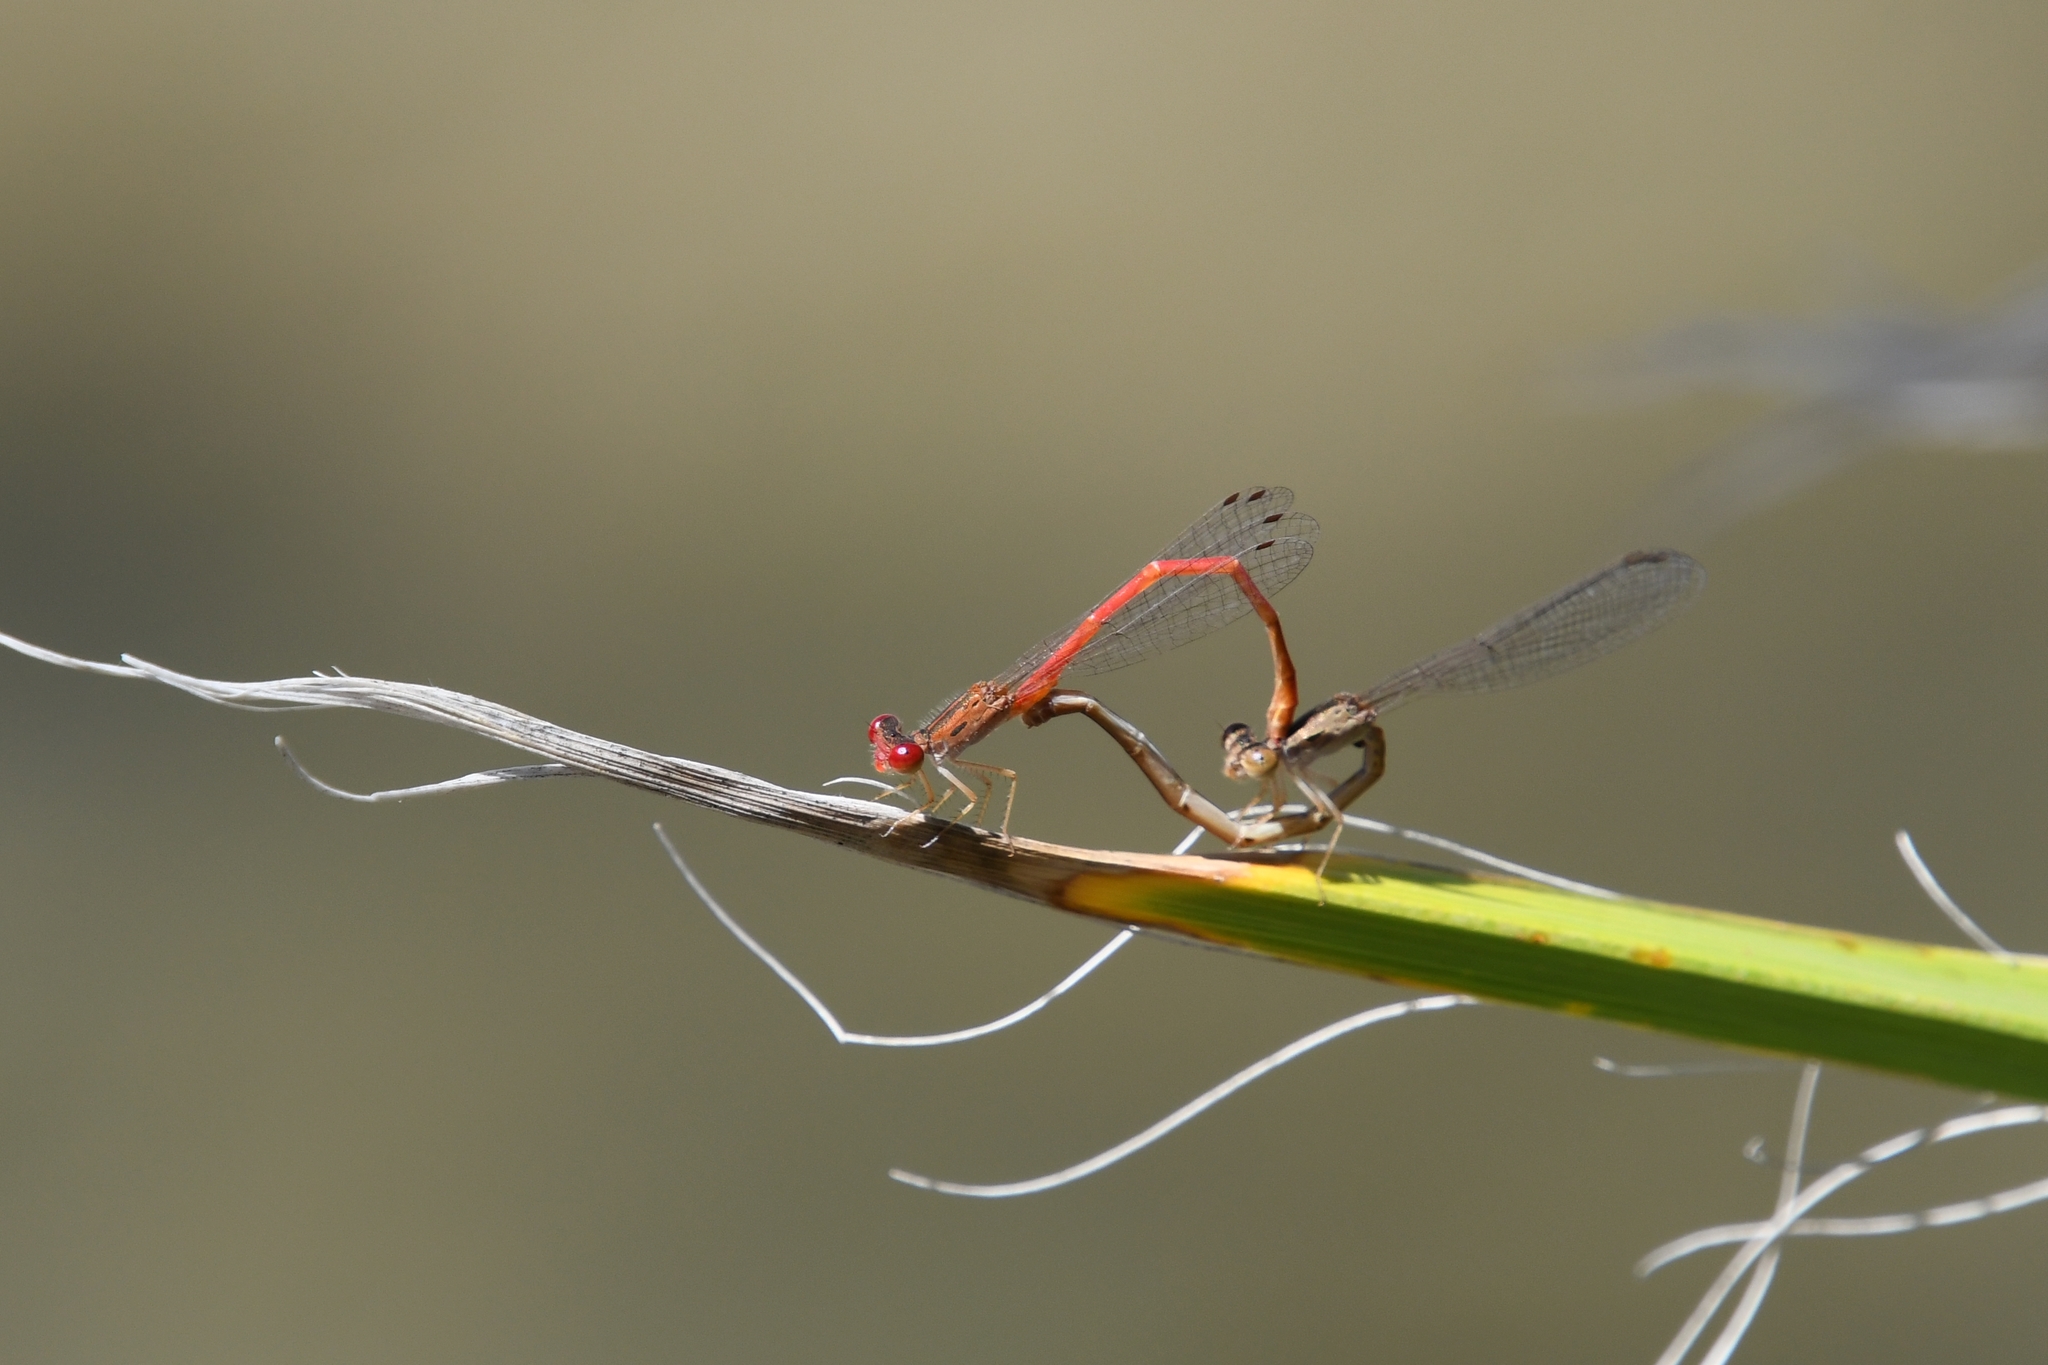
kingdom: Animalia
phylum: Arthropoda
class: Insecta
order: Odonata
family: Coenagrionidae
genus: Telebasis
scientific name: Telebasis salva
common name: Desert firetail
